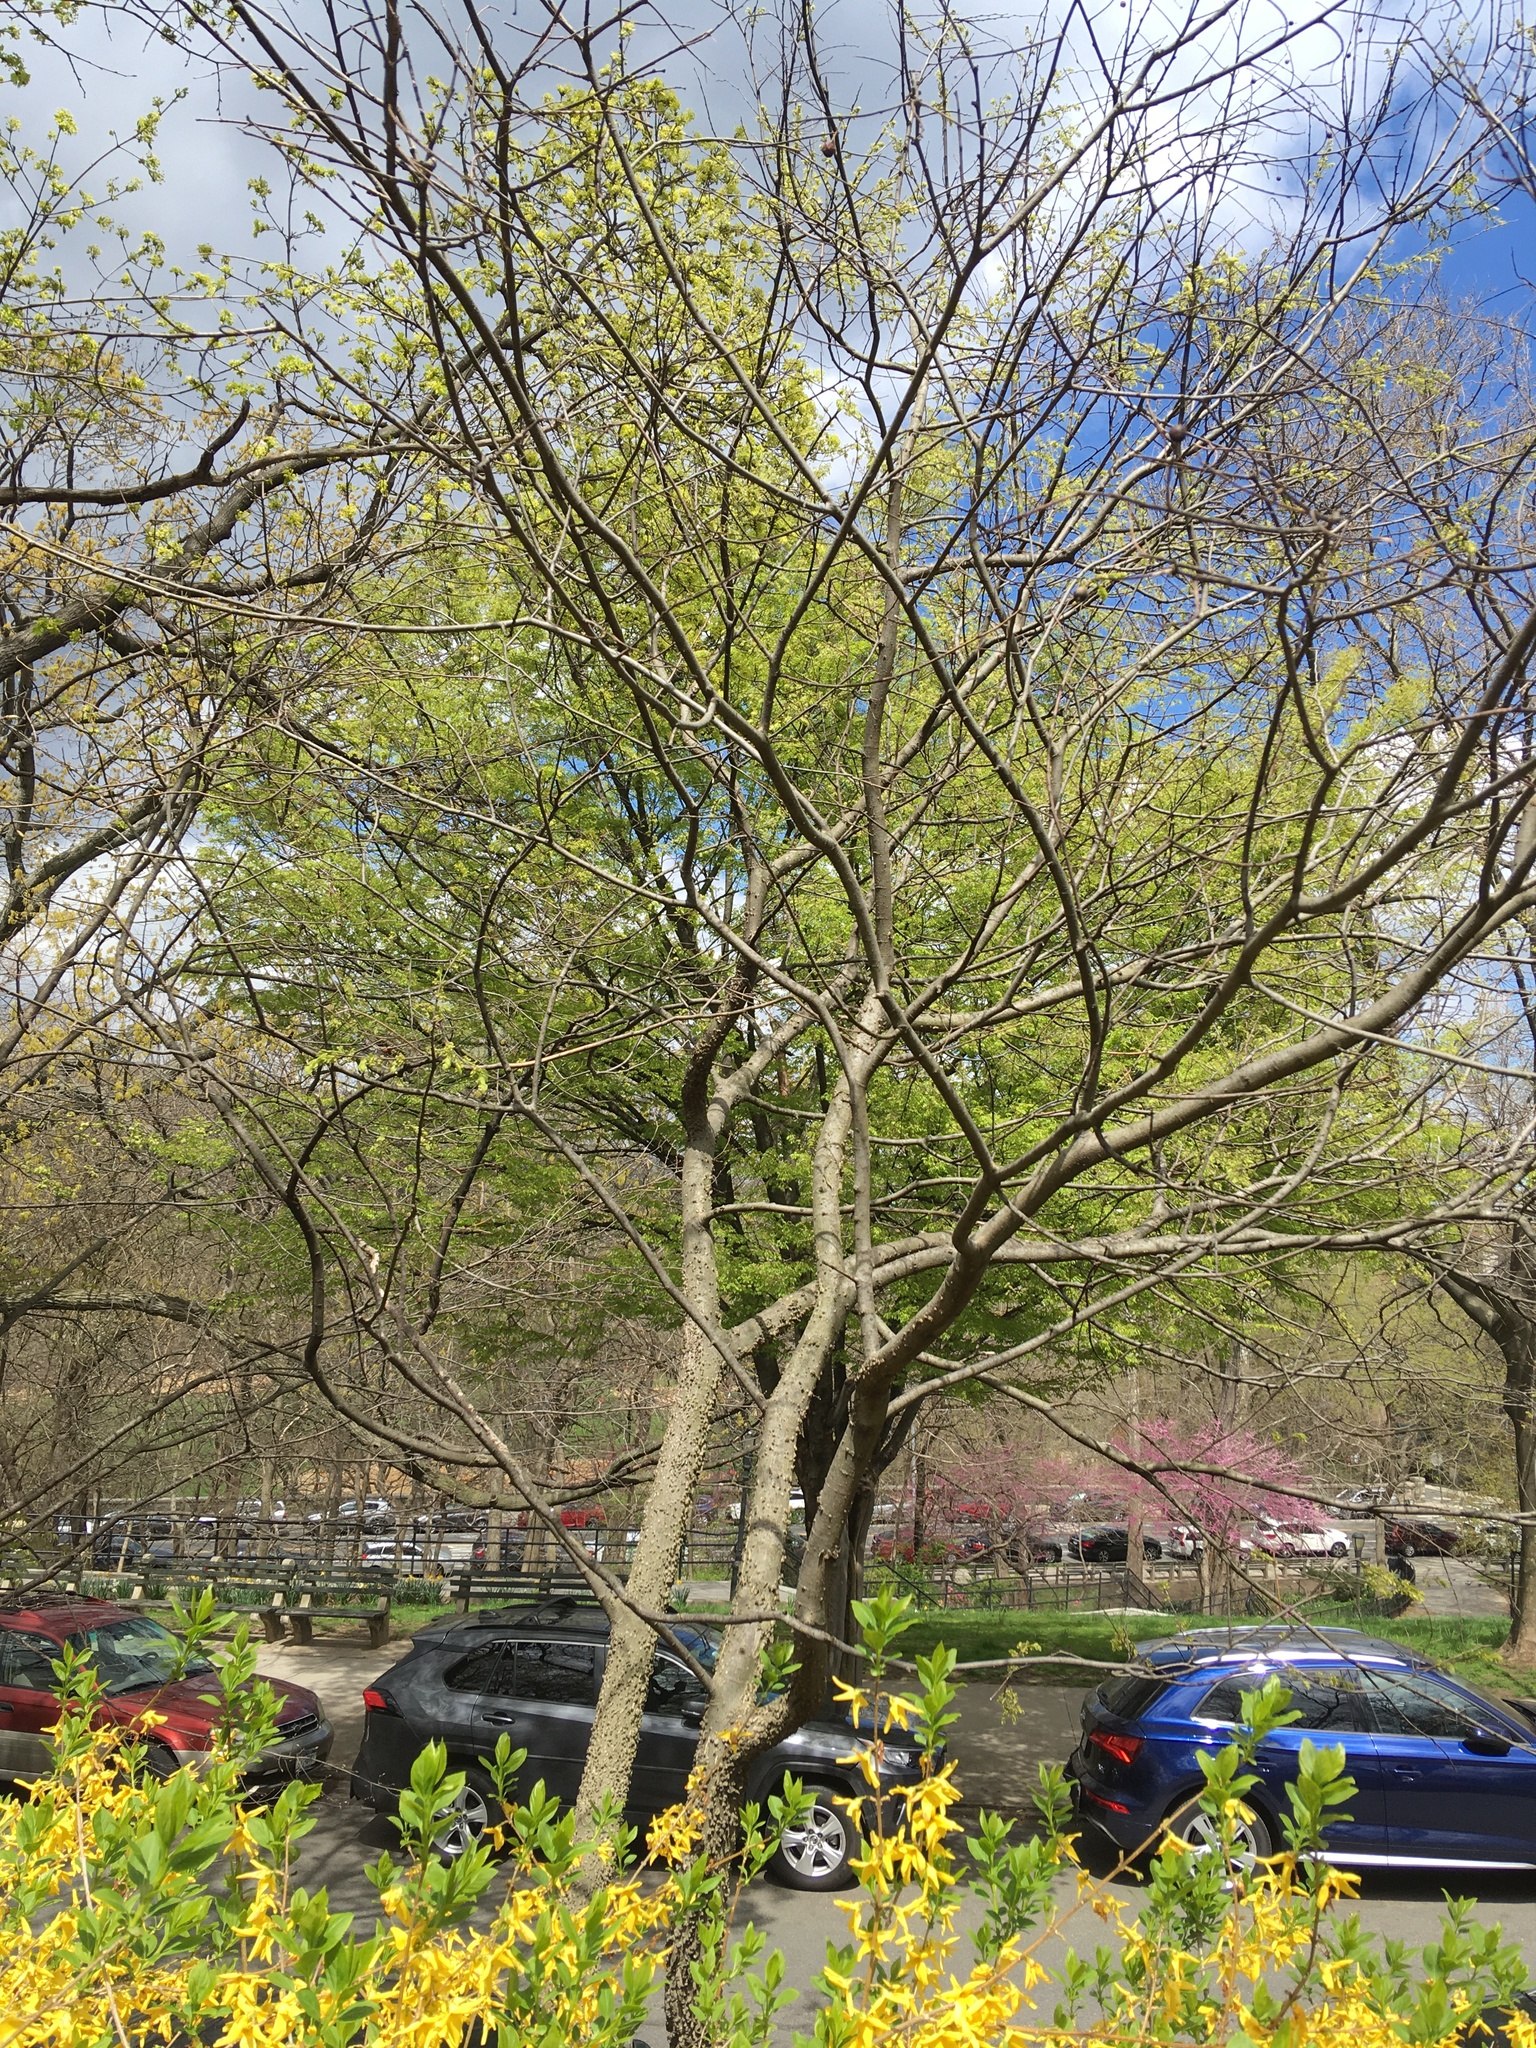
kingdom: Plantae
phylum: Tracheophyta
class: Magnoliopsida
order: Rosales
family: Cannabaceae
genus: Celtis
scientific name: Celtis occidentalis
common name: Common hackberry
